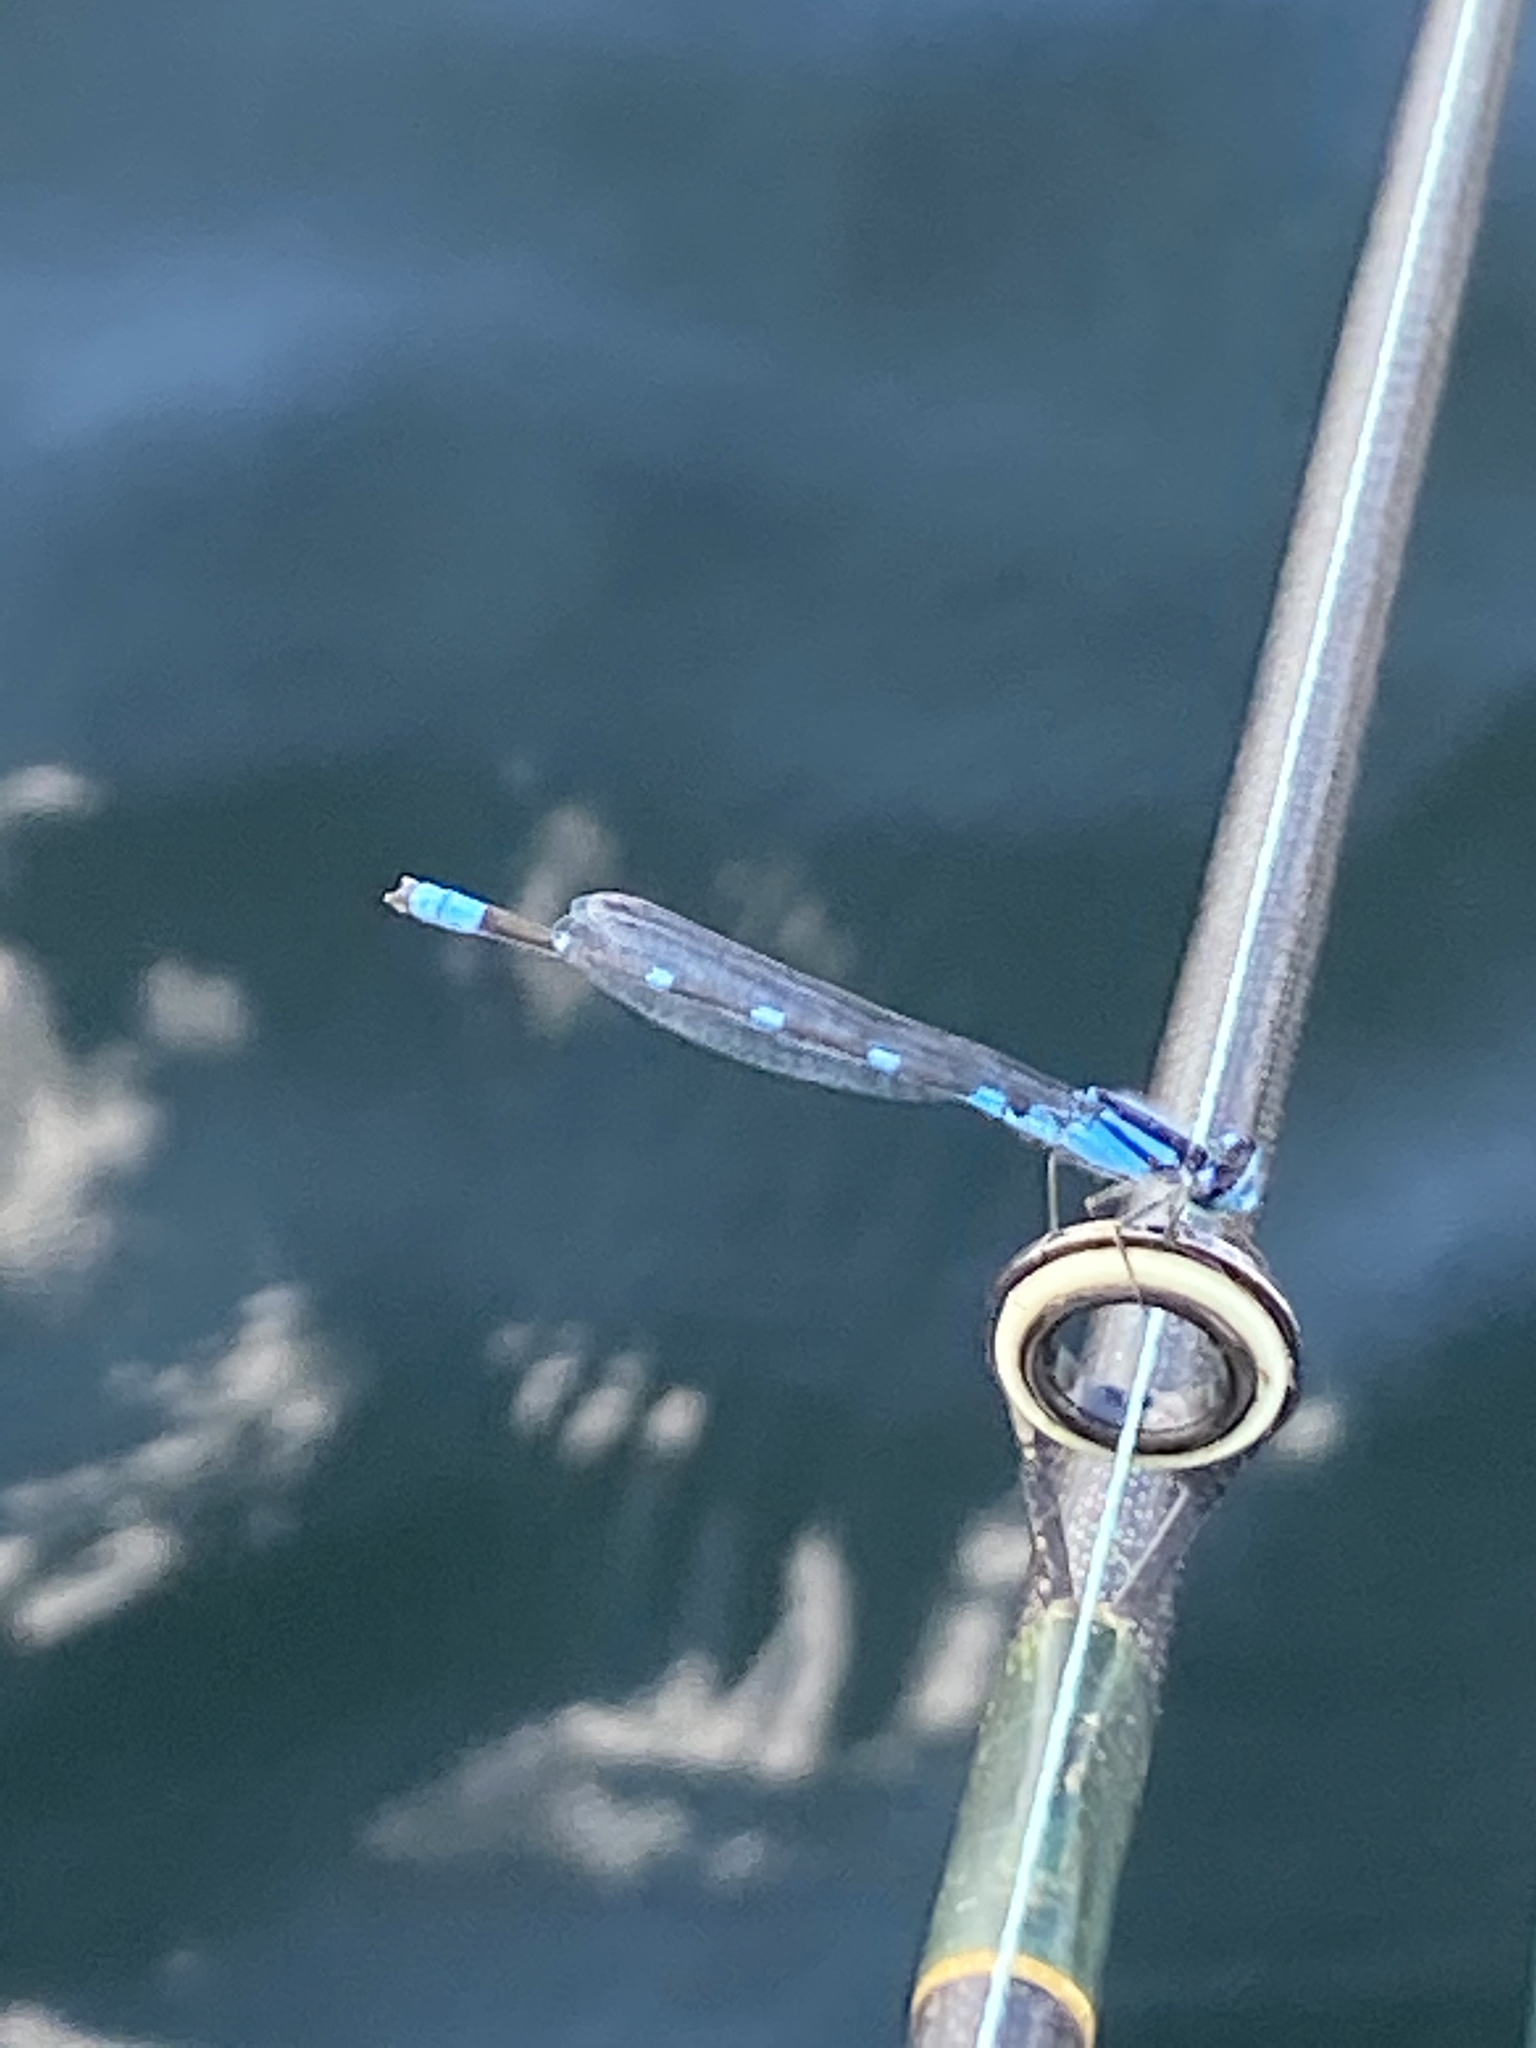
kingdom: Animalia
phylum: Arthropoda
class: Insecta
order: Odonata
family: Coenagrionidae
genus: Enallagma
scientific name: Enallagma carunculatum
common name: Tule bluet
